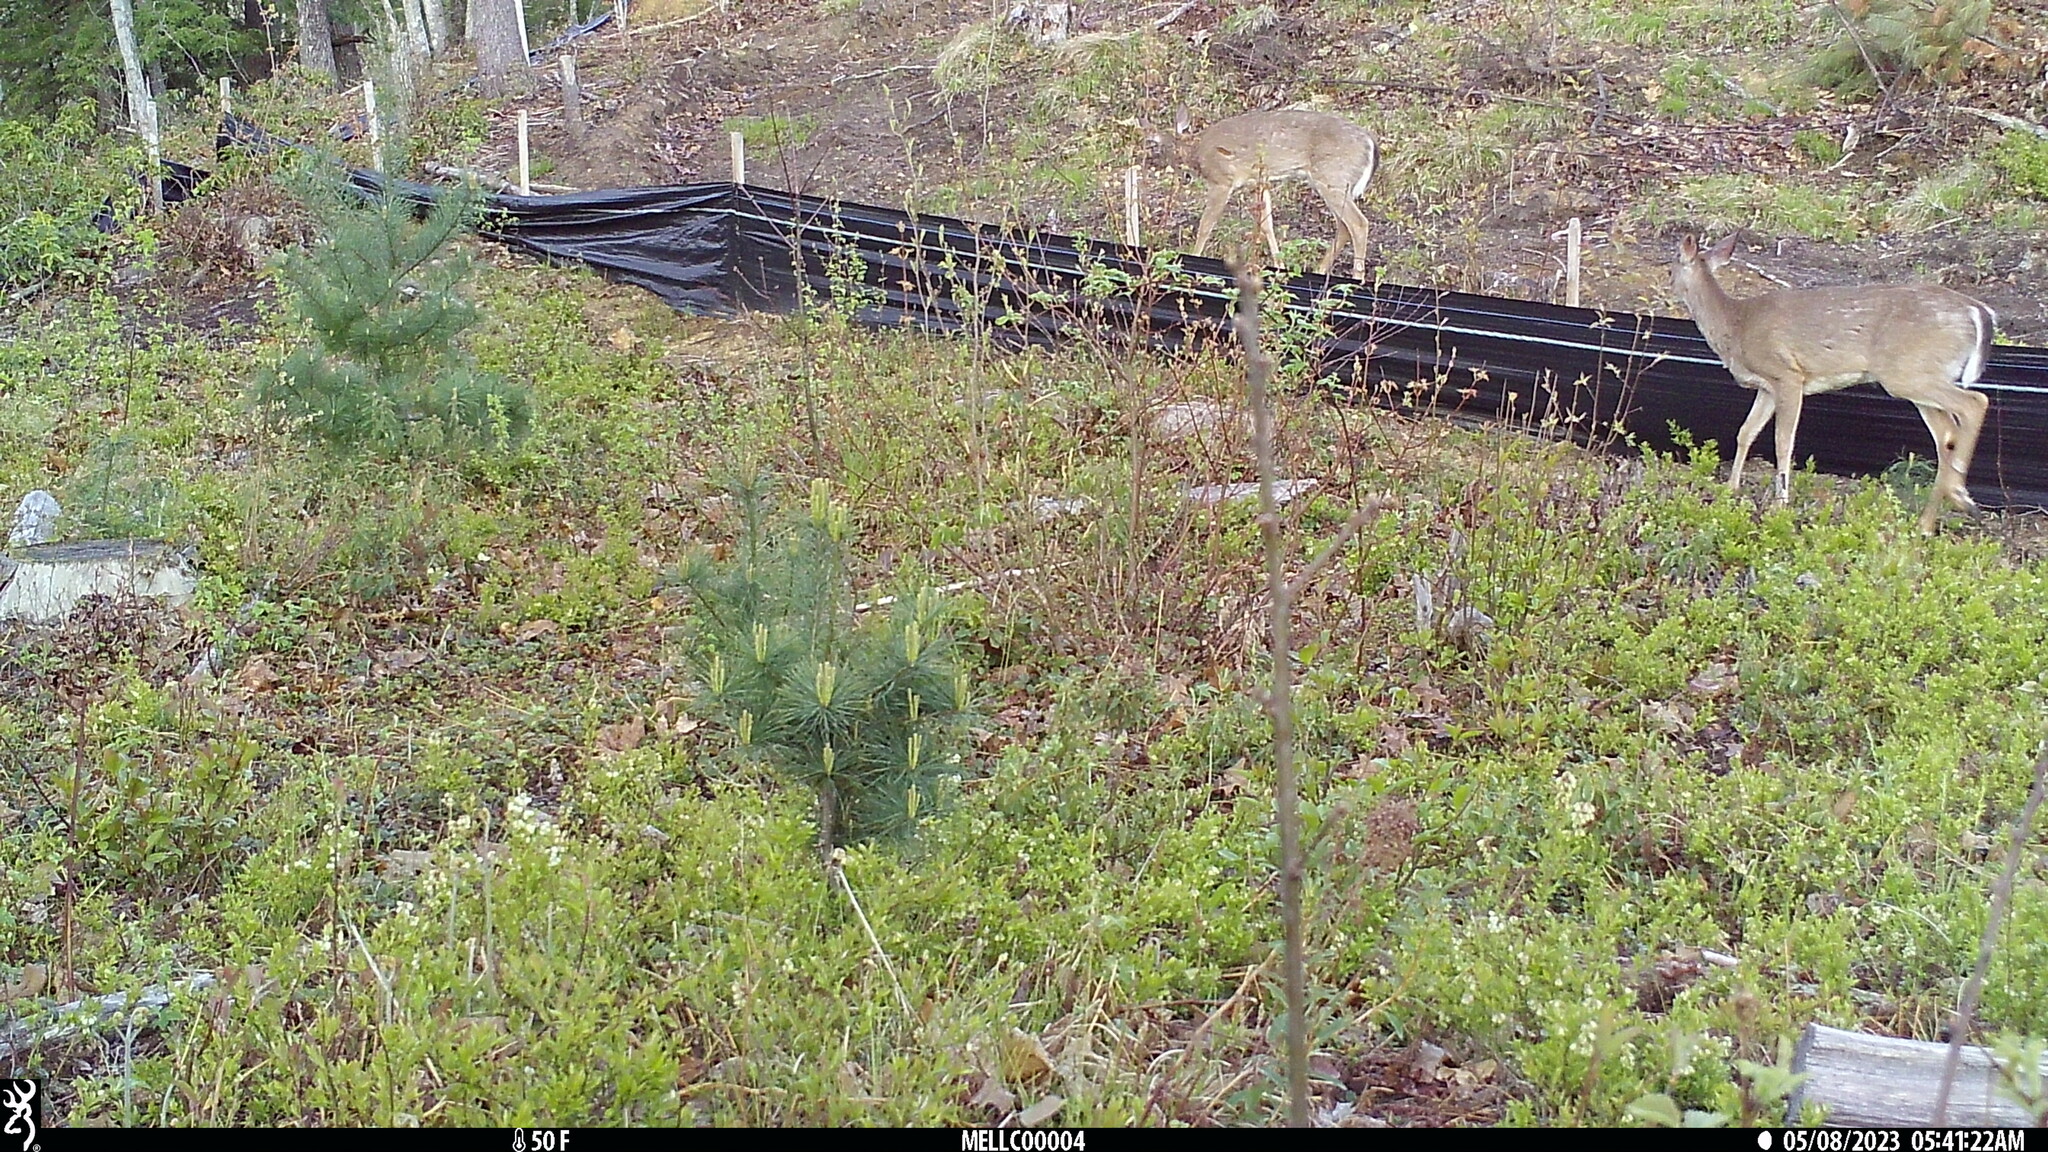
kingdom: Animalia
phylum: Chordata
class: Mammalia
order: Artiodactyla
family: Cervidae
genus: Odocoileus
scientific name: Odocoileus virginianus
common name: White-tailed deer
